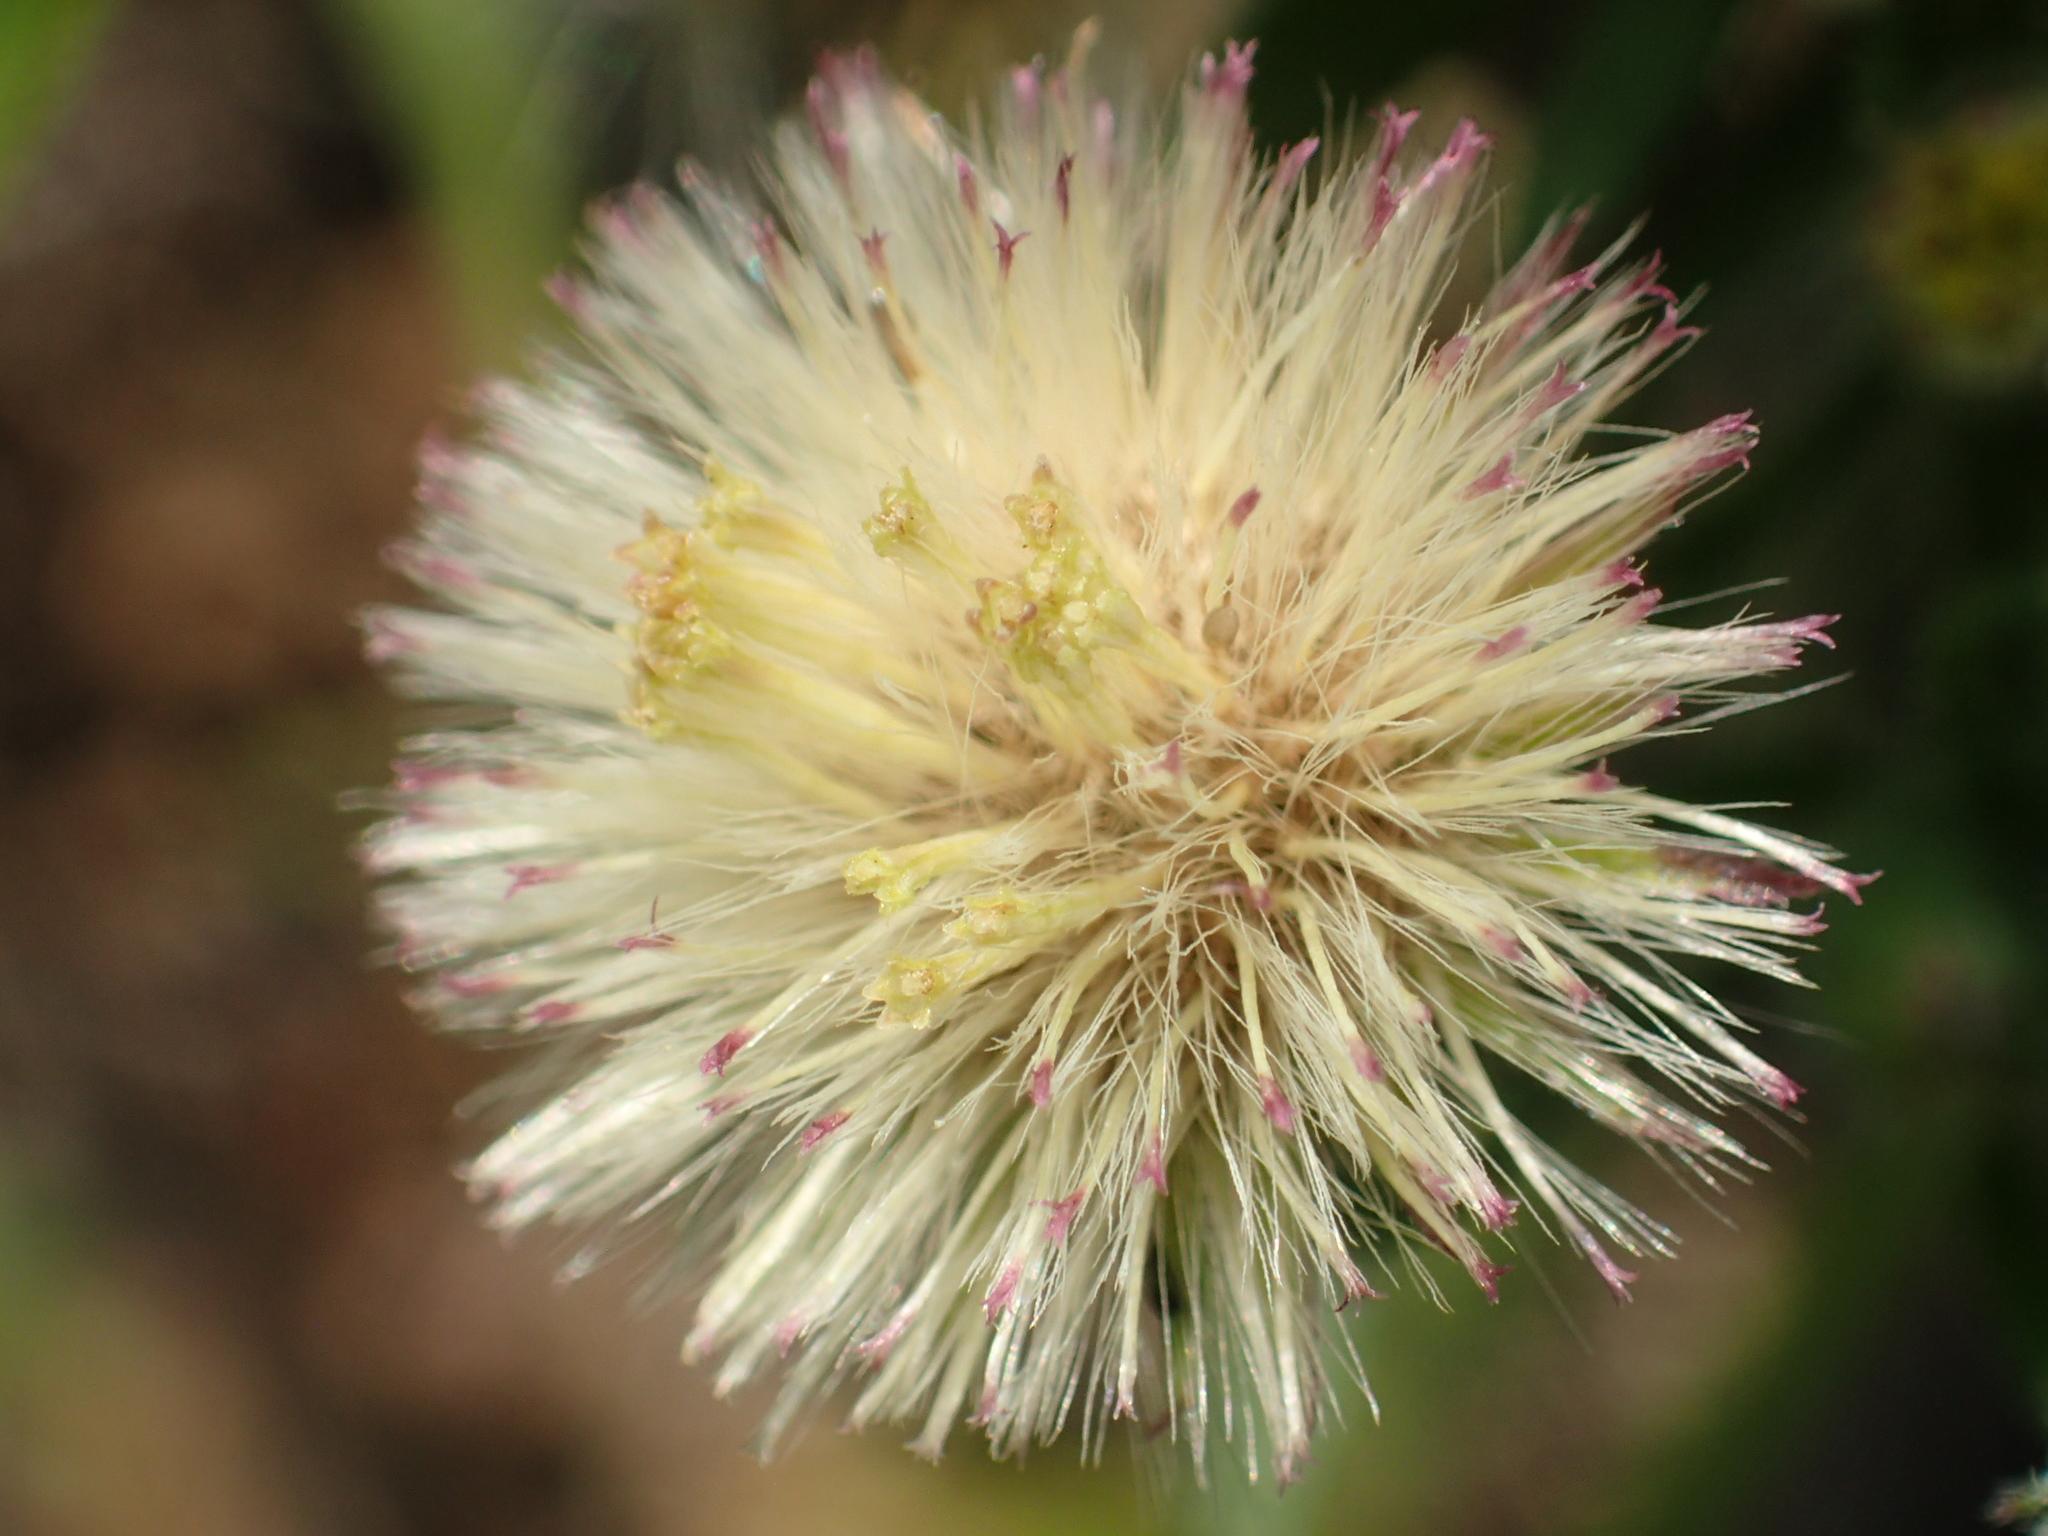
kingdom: Plantae
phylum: Tracheophyta
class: Magnoliopsida
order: Asterales
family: Asteraceae
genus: Erigeron
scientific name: Erigeron bonariensis
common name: Argentine fleabane
